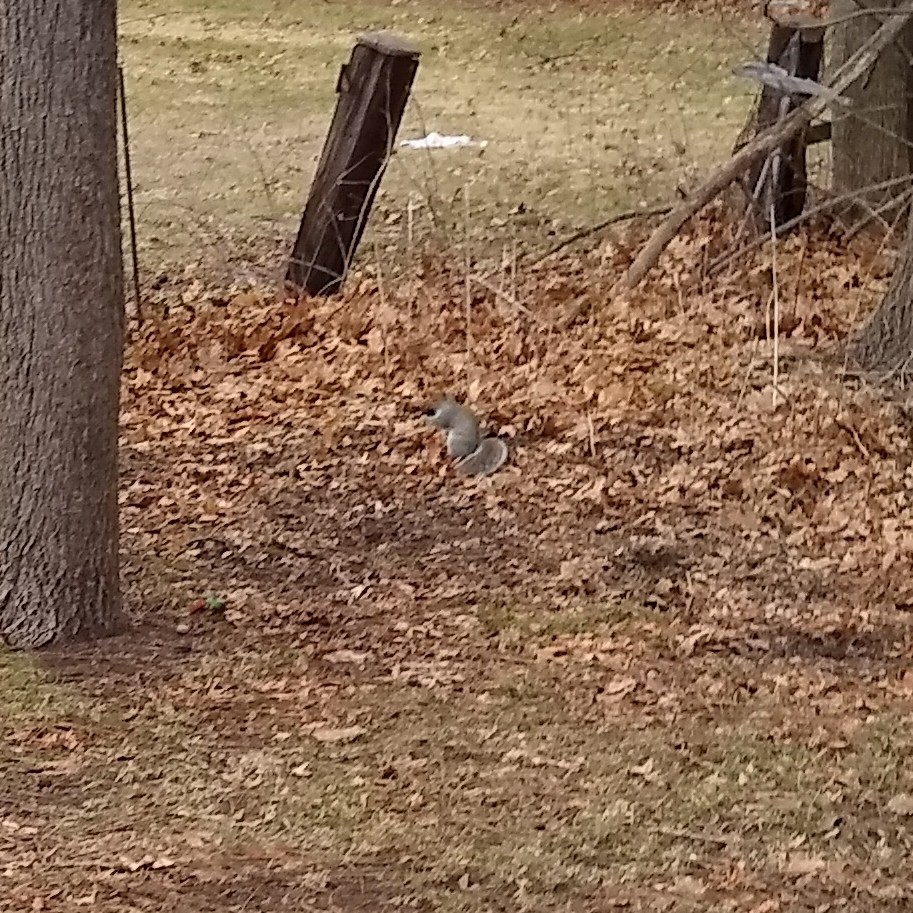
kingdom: Animalia
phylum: Chordata
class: Mammalia
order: Rodentia
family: Sciuridae
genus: Sciurus
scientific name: Sciurus carolinensis
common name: Eastern gray squirrel
